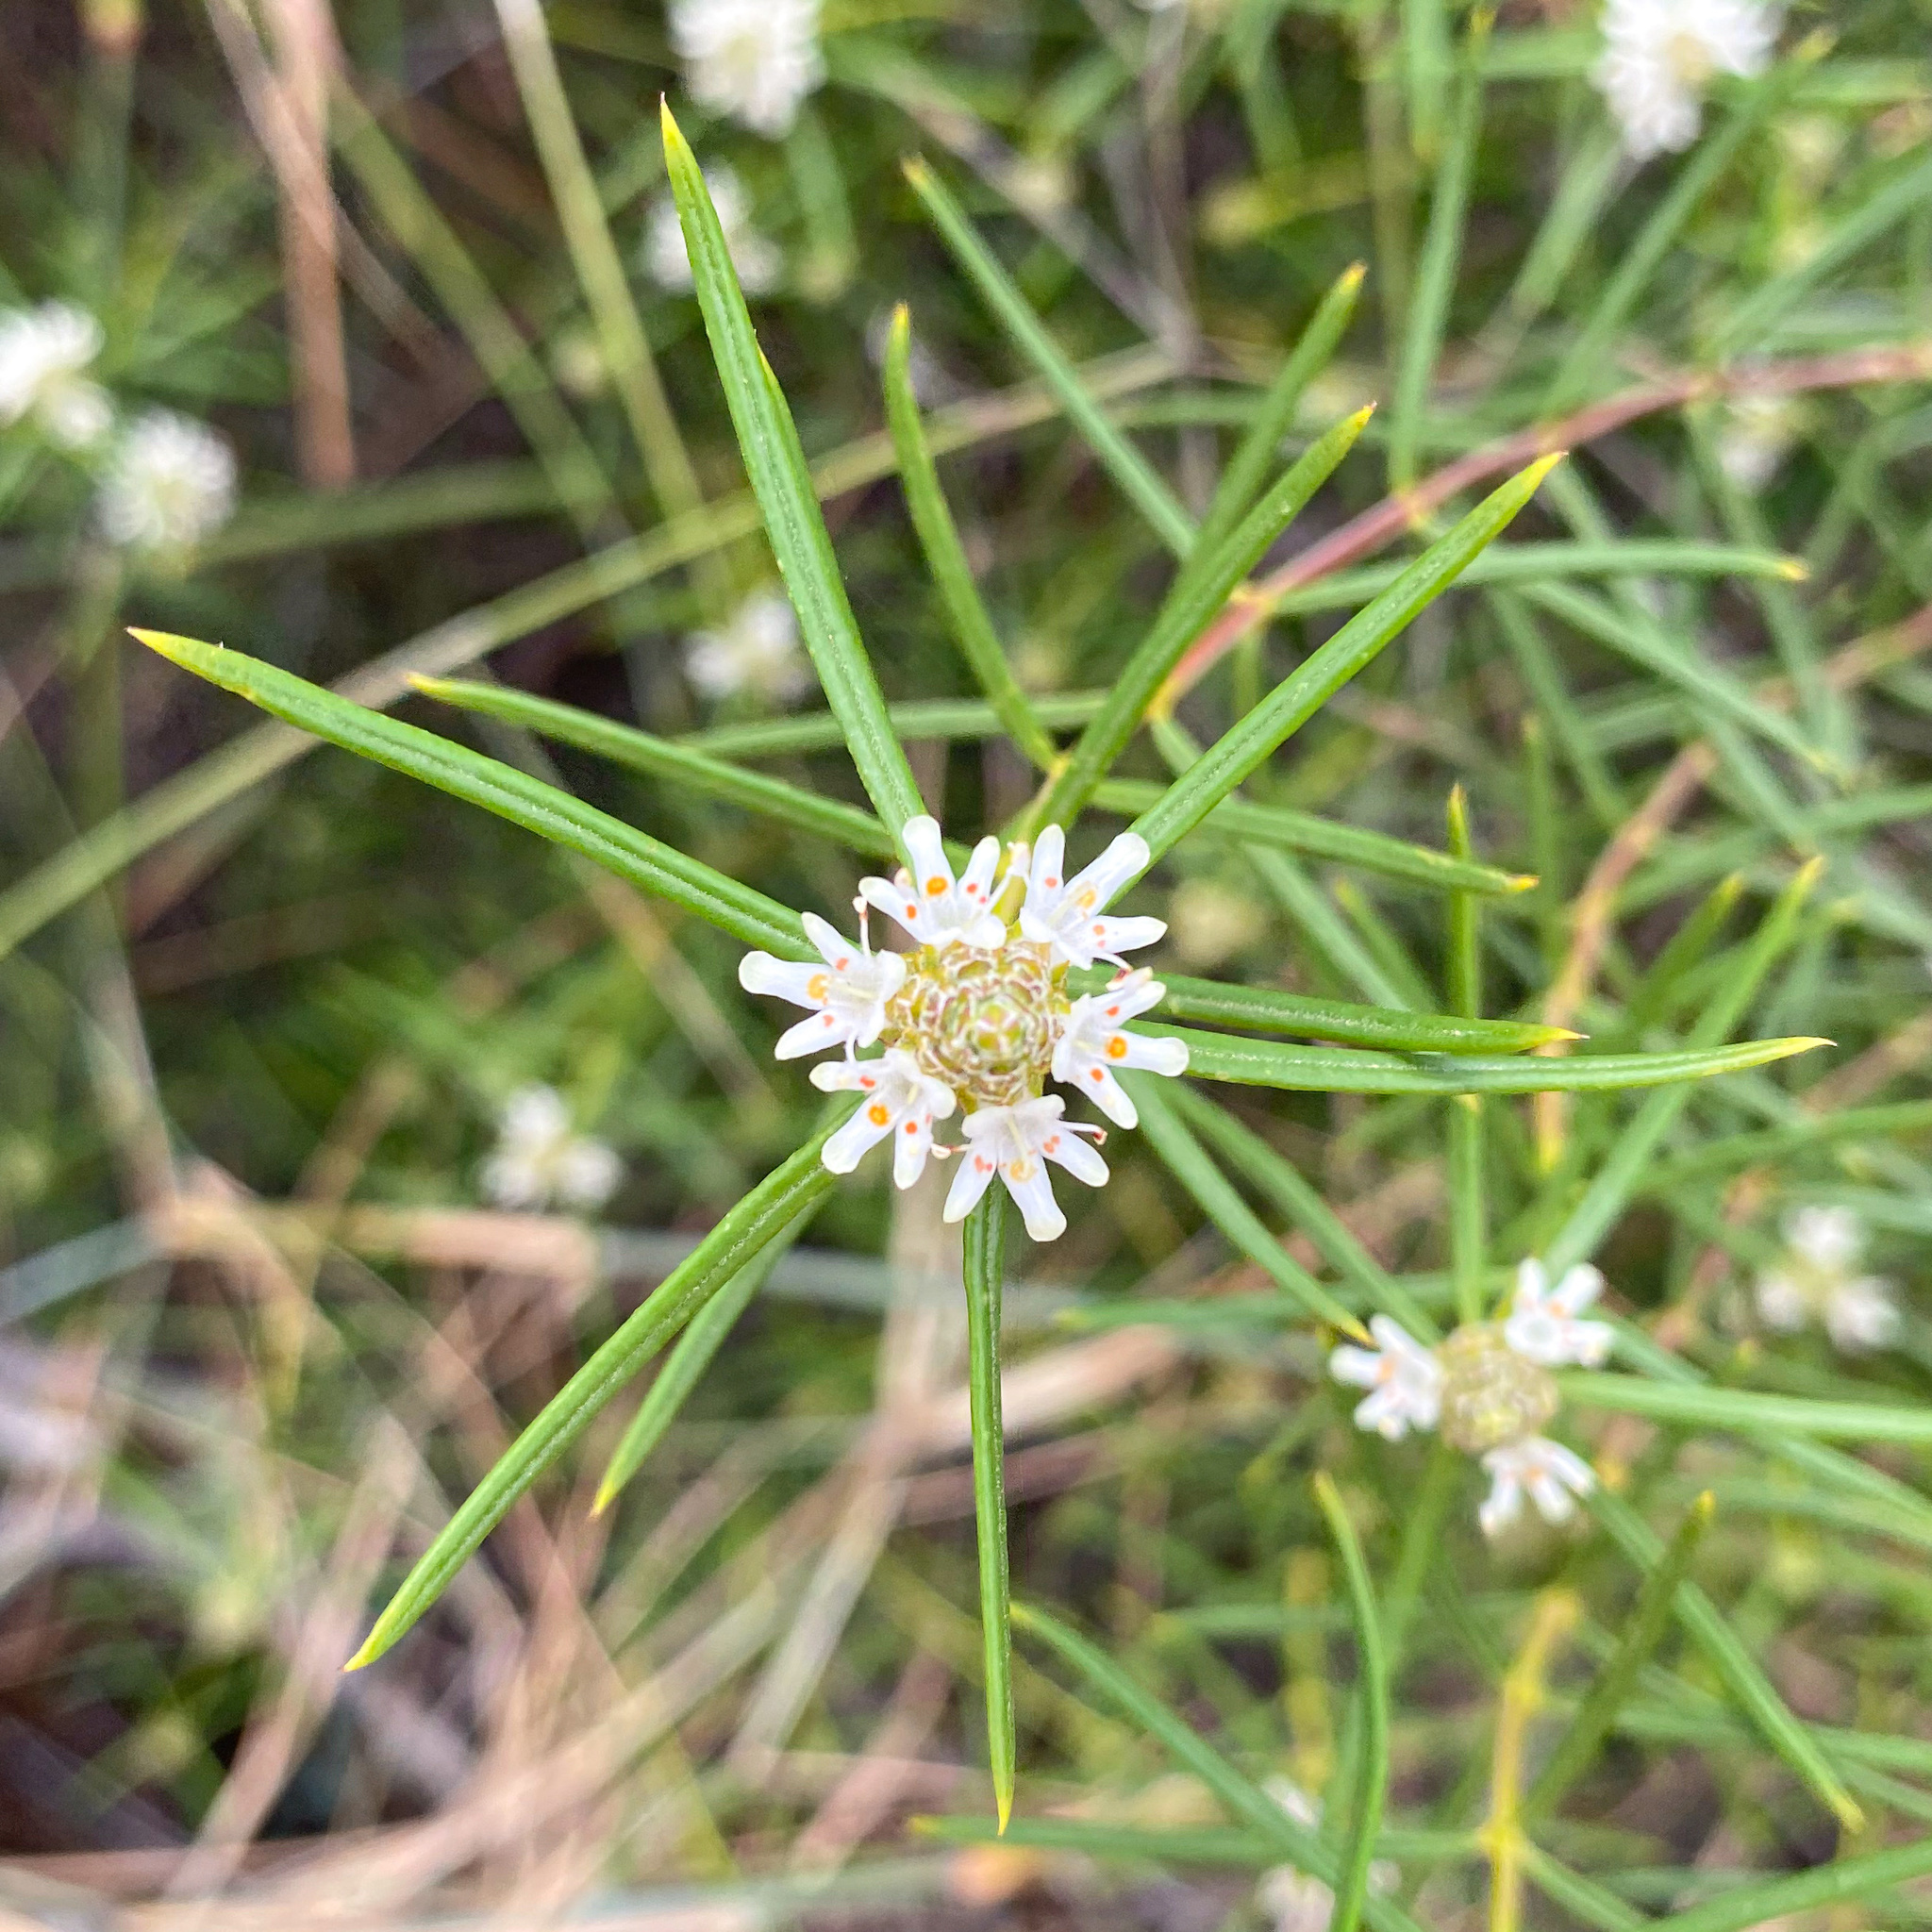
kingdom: Plantae
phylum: Tracheophyta
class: Magnoliopsida
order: Lamiales
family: Lamiaceae
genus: Westringia
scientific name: Westringia cephalantha
